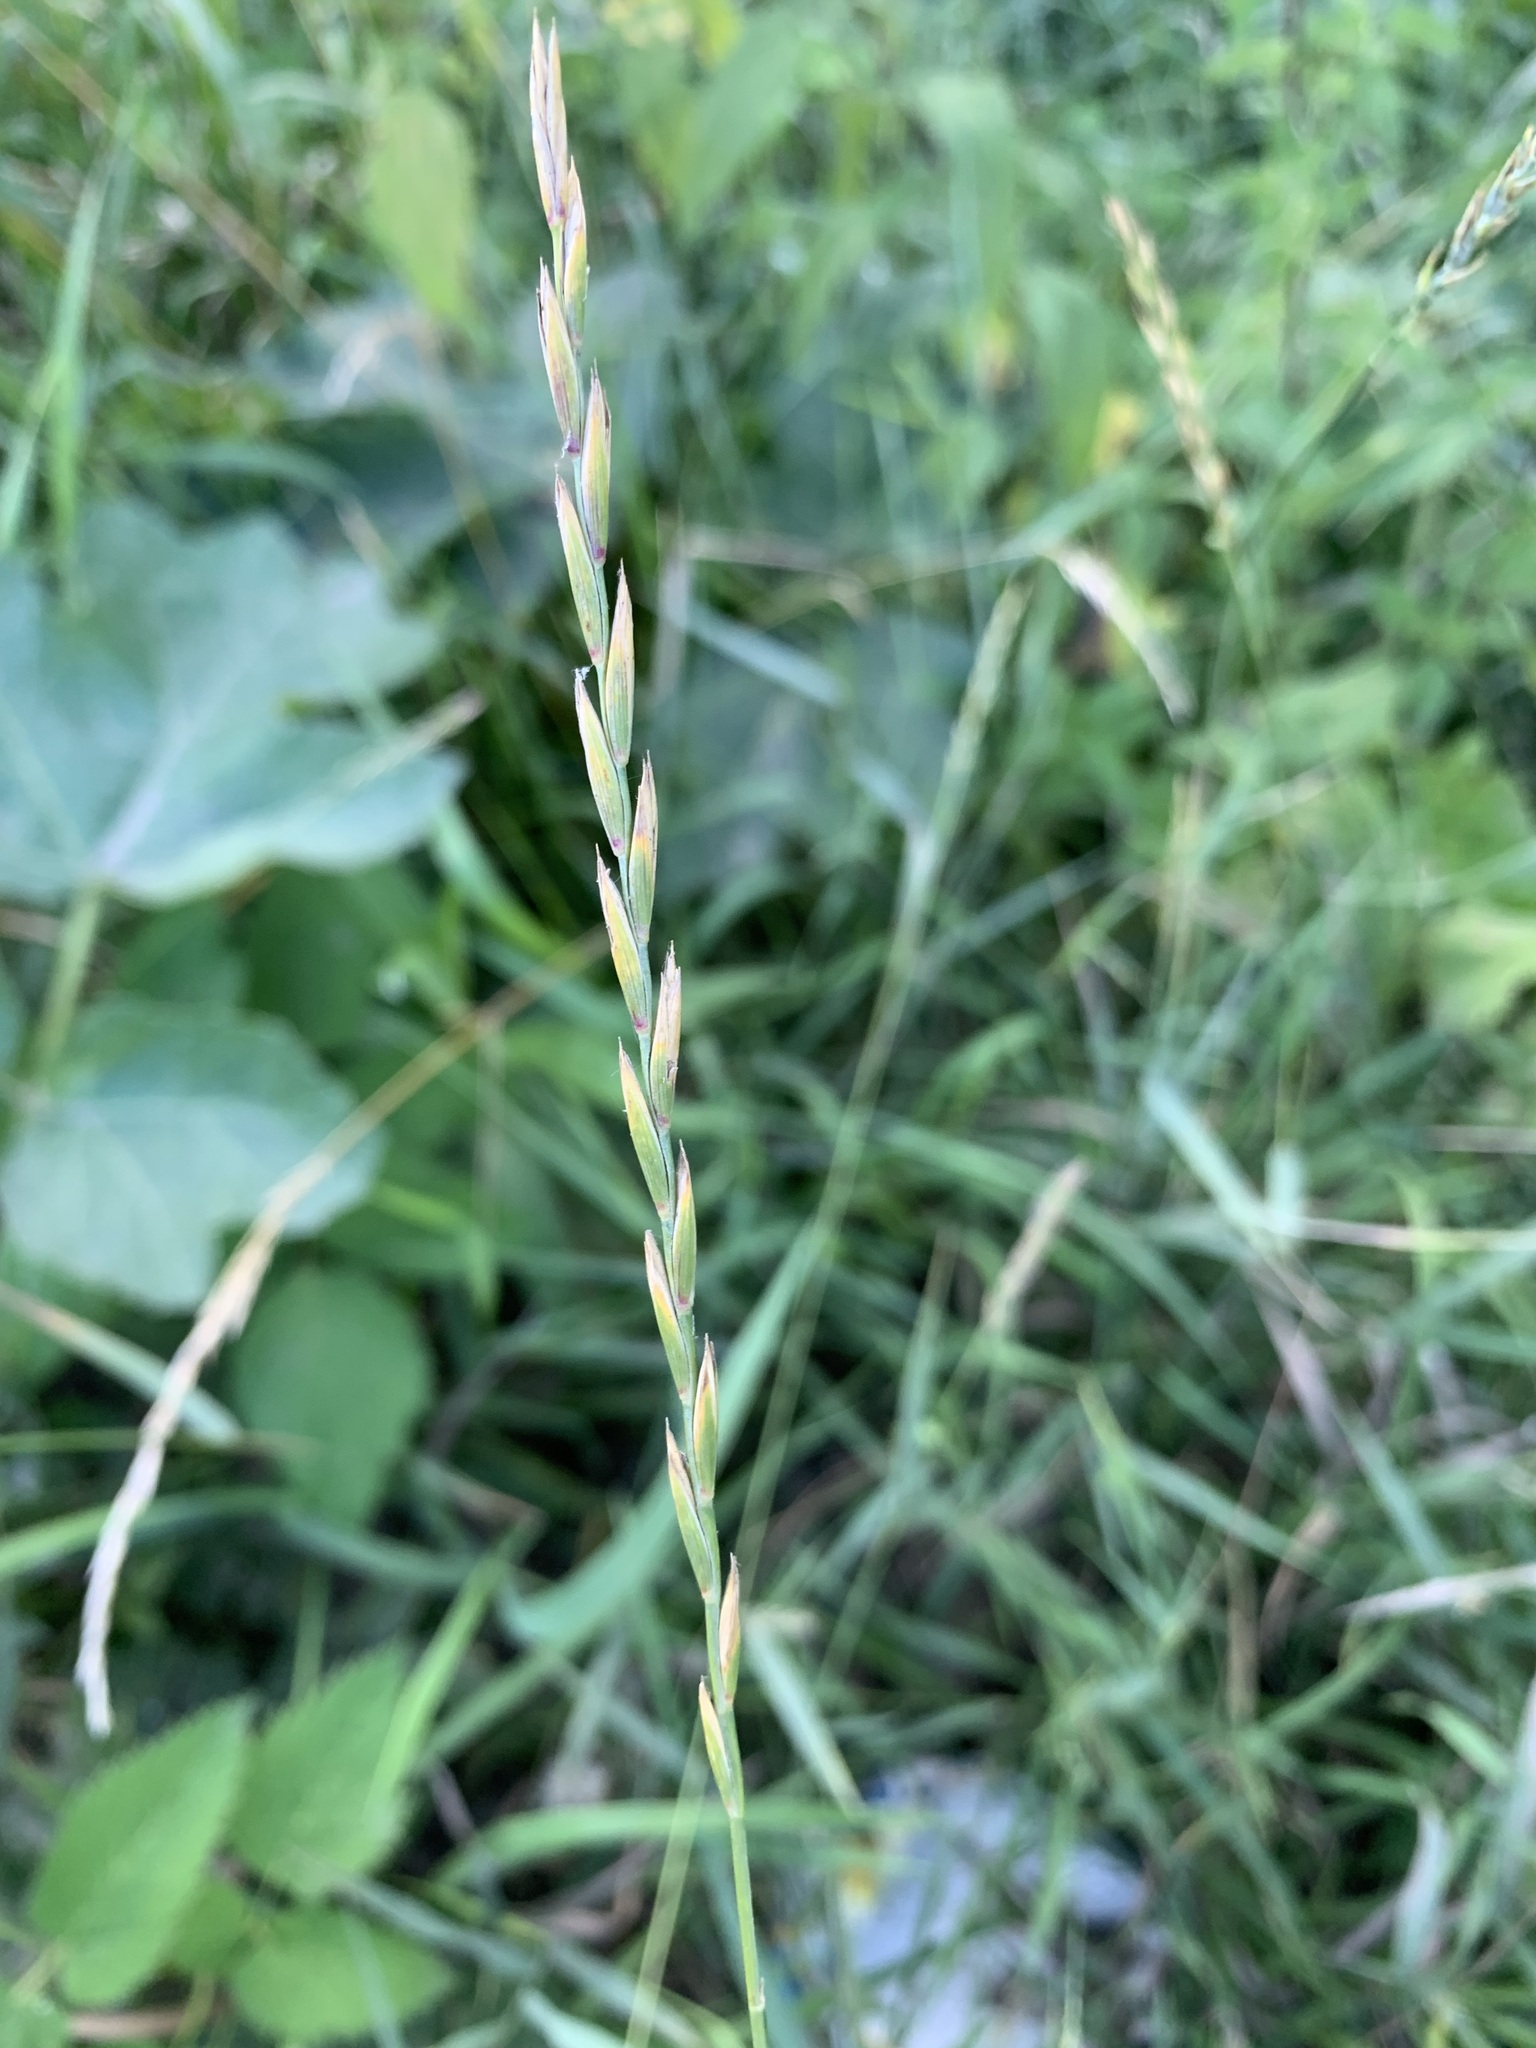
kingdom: Plantae
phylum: Tracheophyta
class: Liliopsida
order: Poales
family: Poaceae
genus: Elymus
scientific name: Elymus repens
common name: Quackgrass
